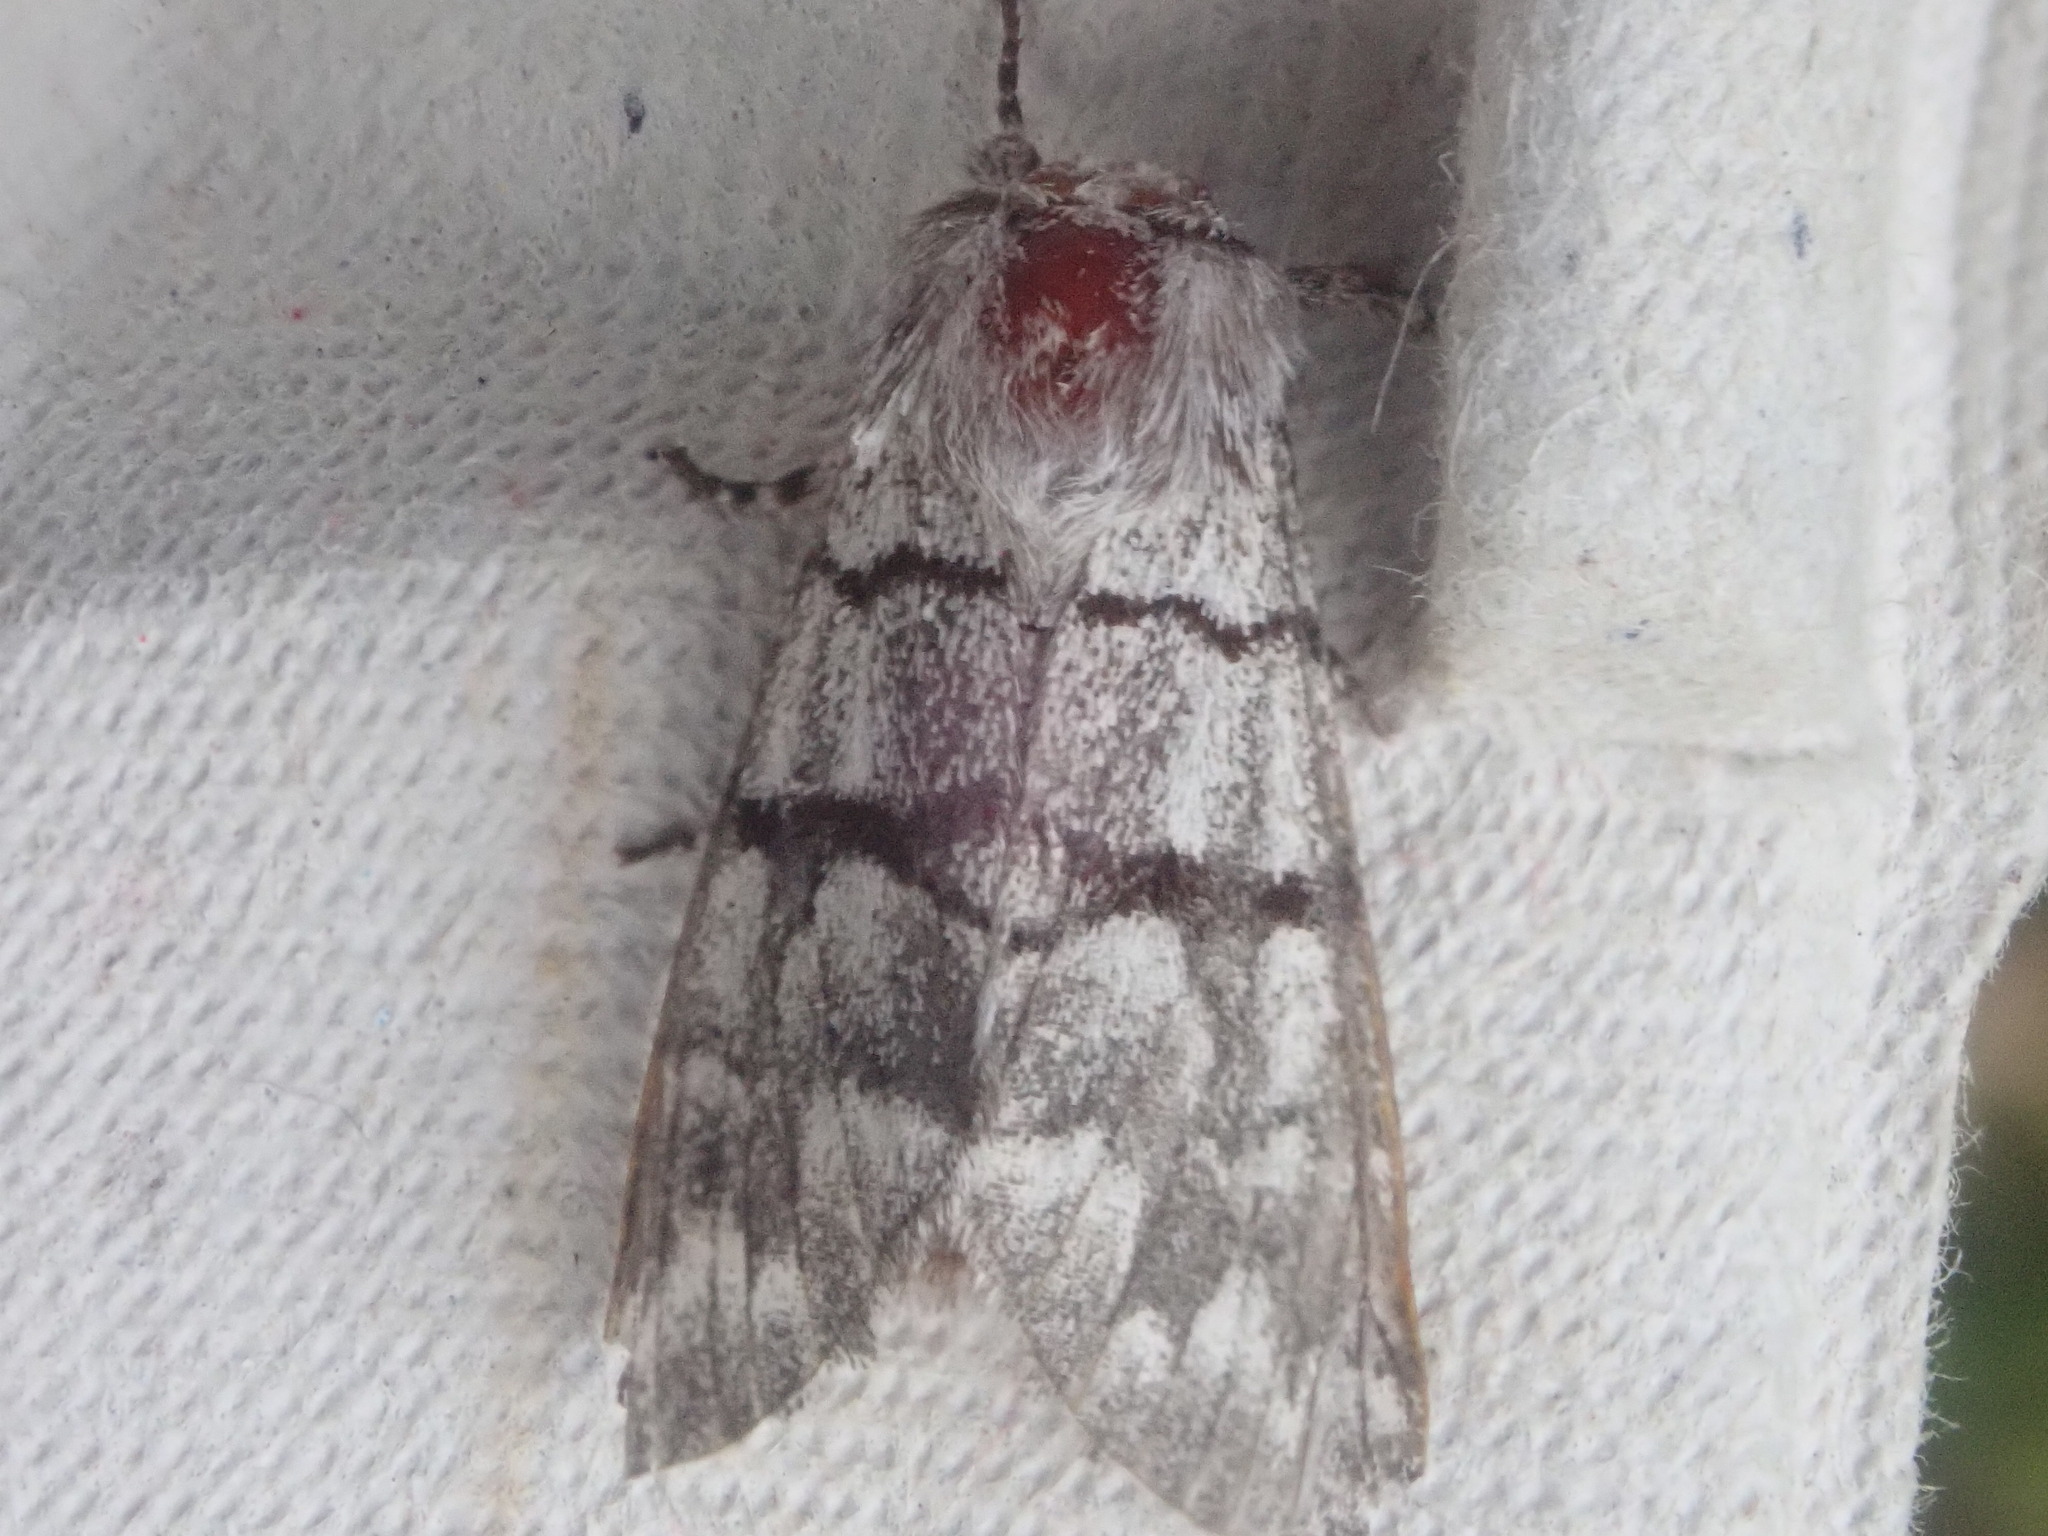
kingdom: Animalia
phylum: Arthropoda
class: Insecta
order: Lepidoptera
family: Noctuidae
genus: Panthea
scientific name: Panthea furcilla
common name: Eastern panthea moth
